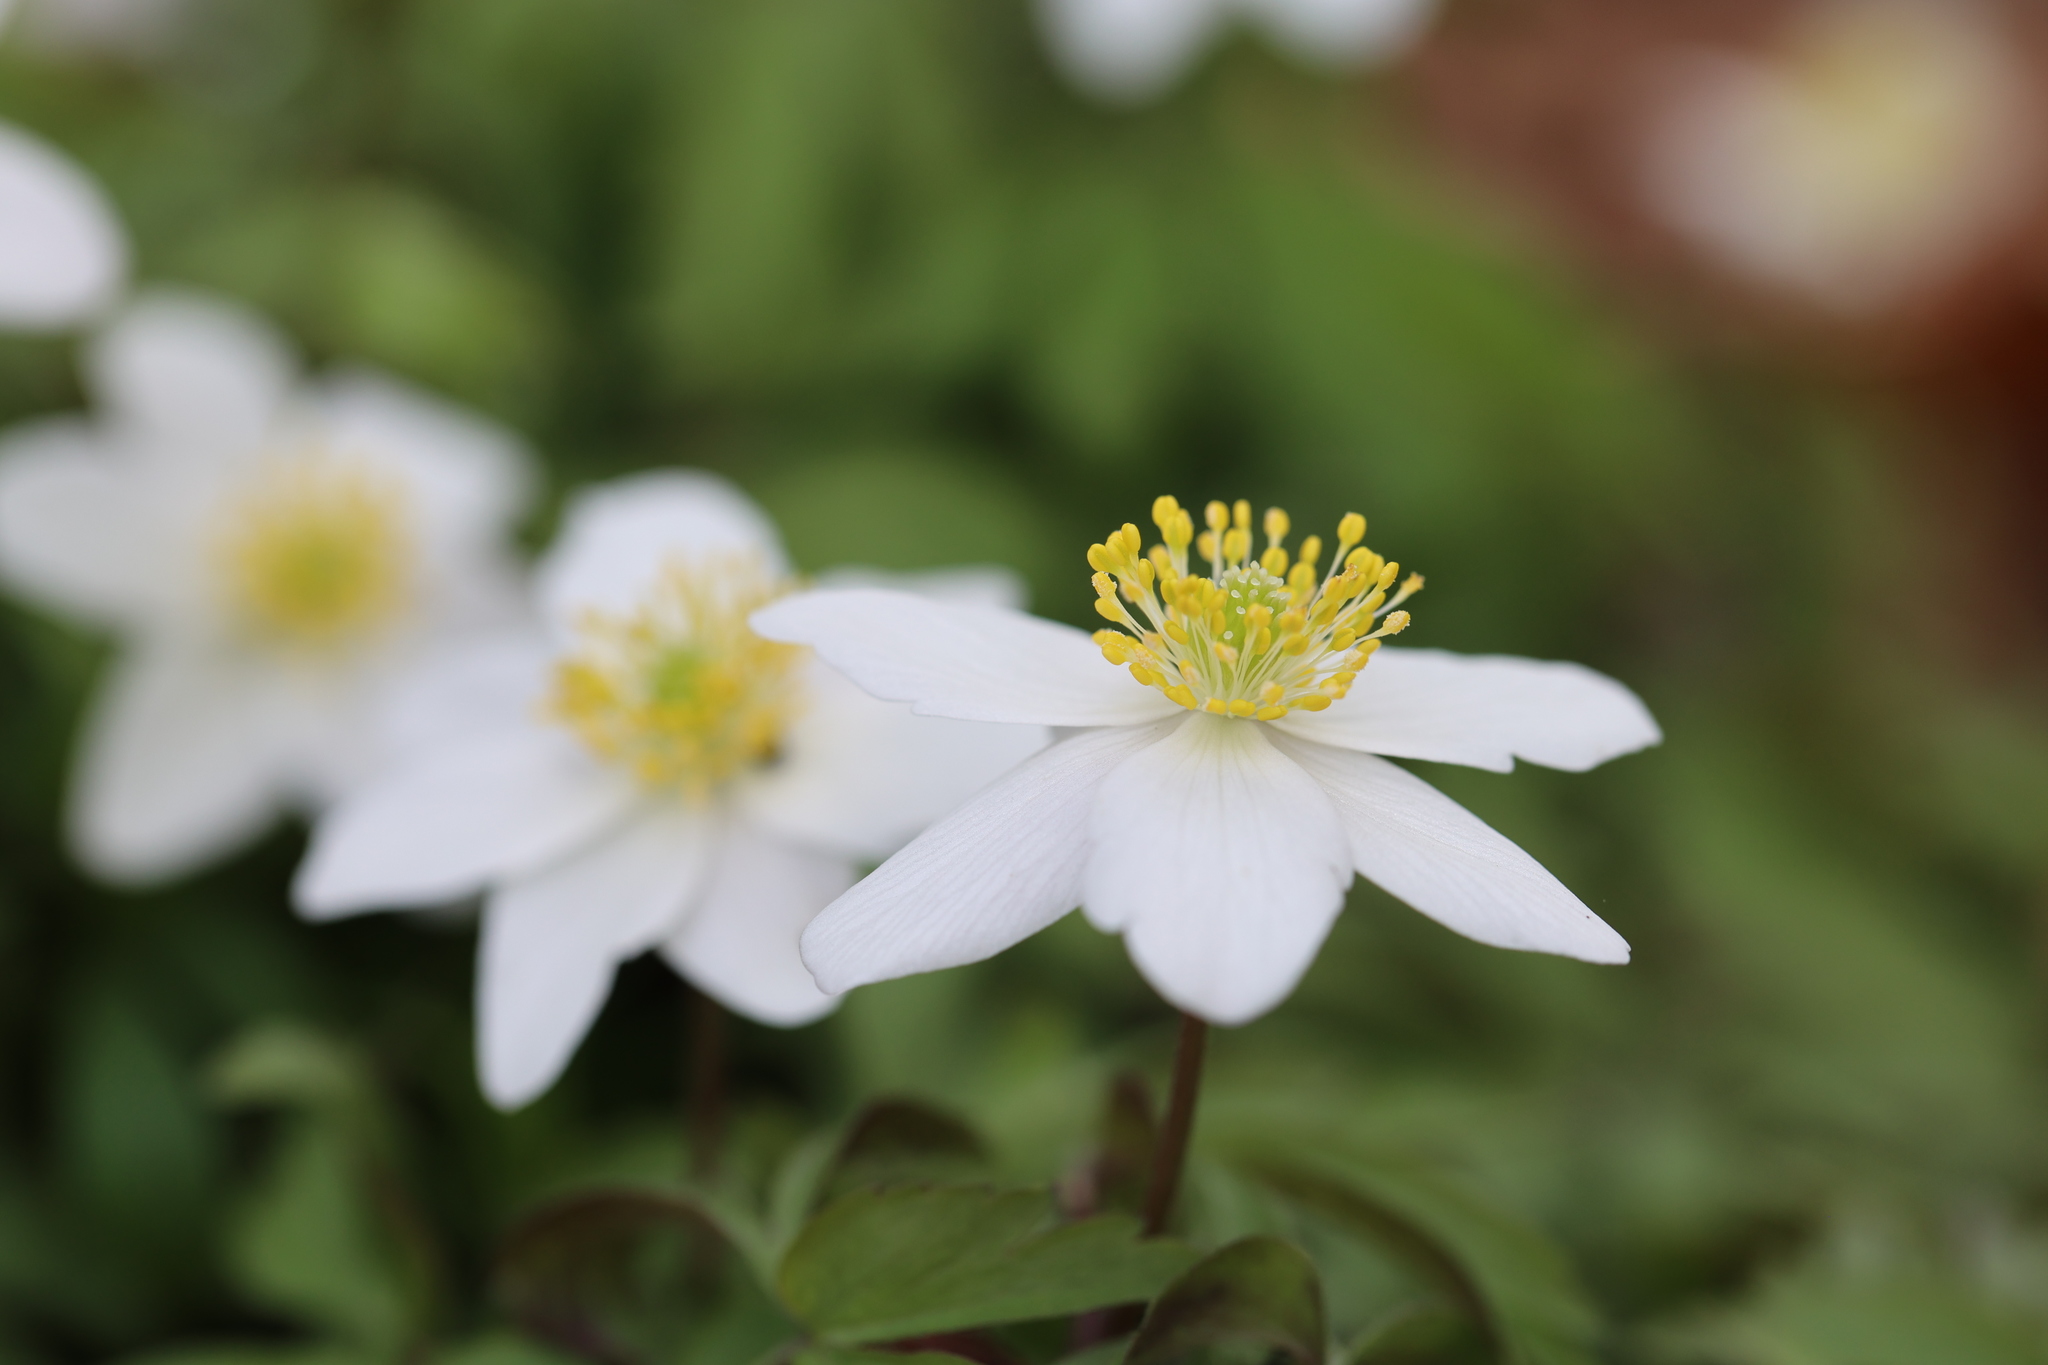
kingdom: Plantae
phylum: Tracheophyta
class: Magnoliopsida
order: Ranunculales
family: Ranunculaceae
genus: Anemone
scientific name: Anemone nemorosa
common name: Wood anemone
